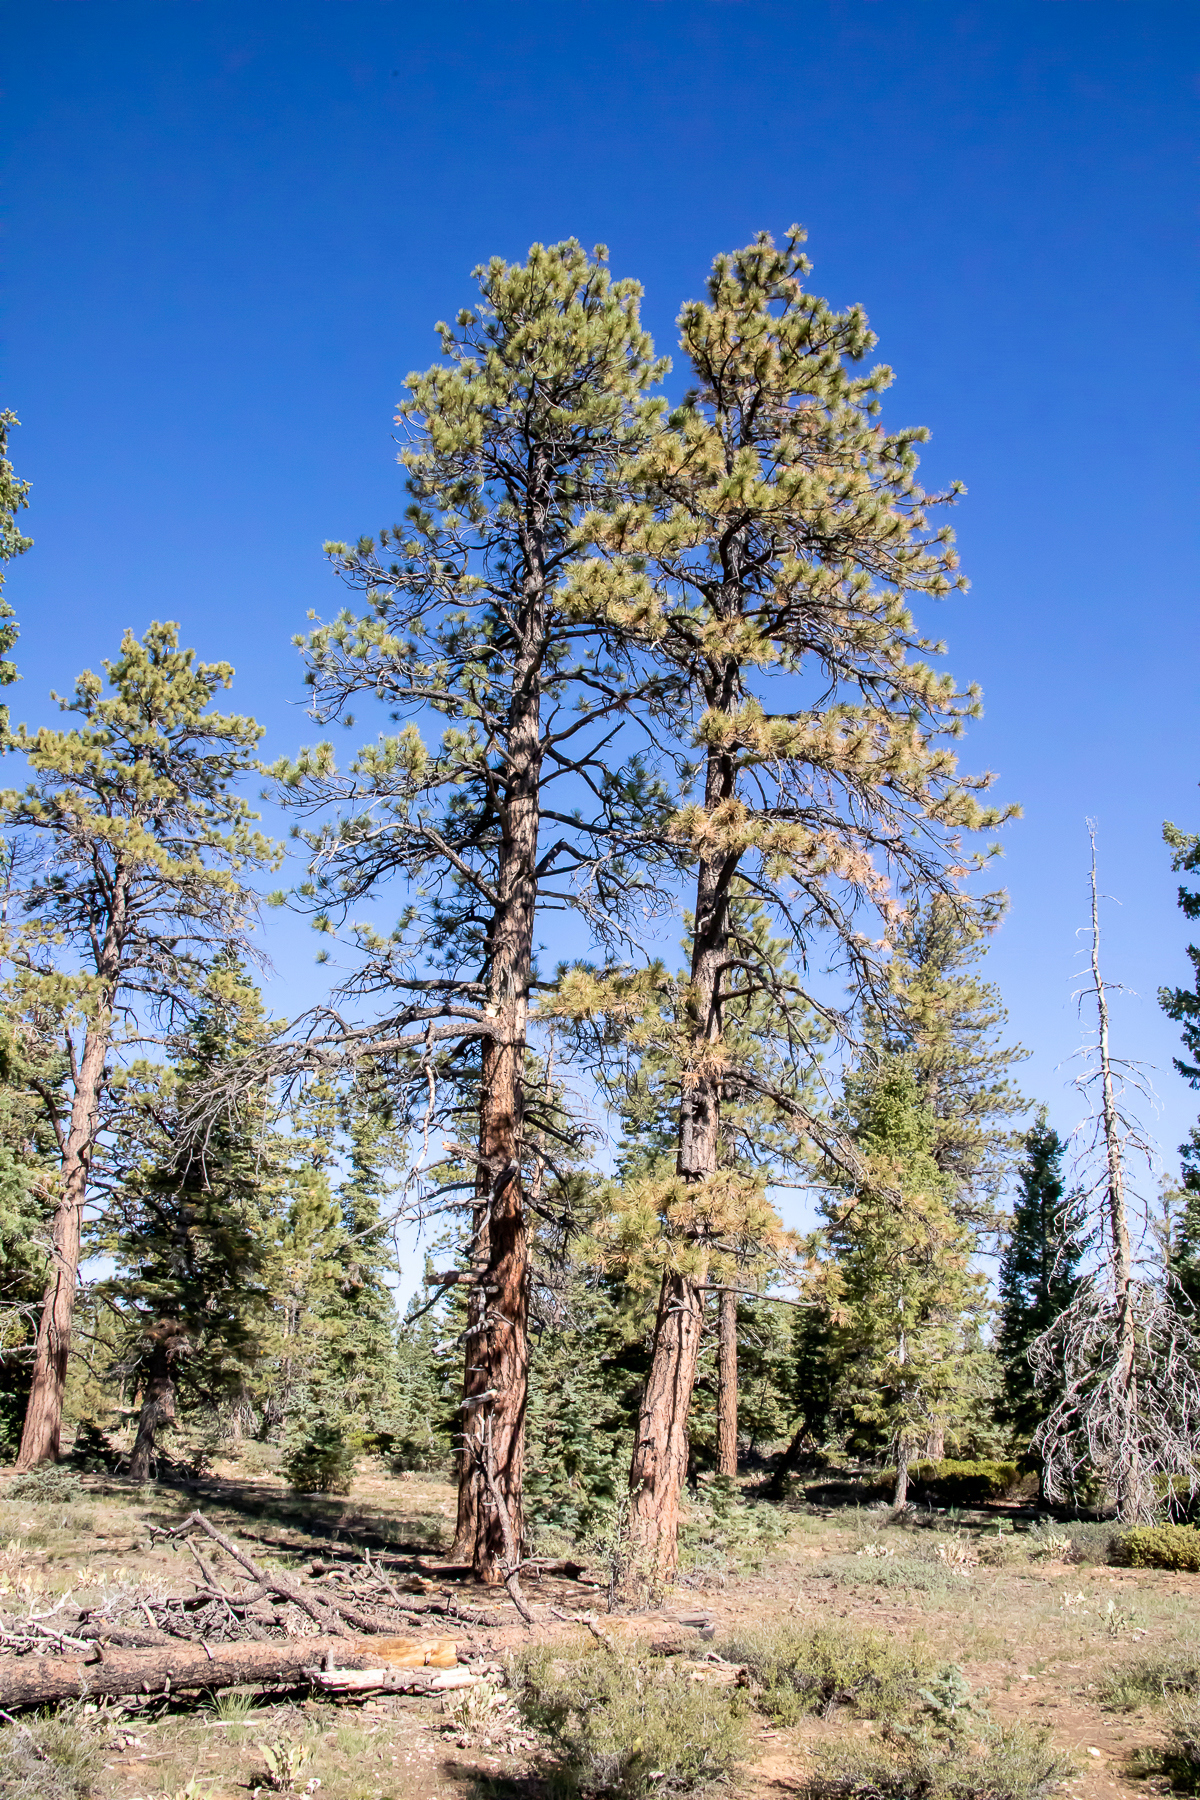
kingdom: Plantae
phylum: Tracheophyta
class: Pinopsida
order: Pinales
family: Pinaceae
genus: Pinus
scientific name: Pinus ponderosa
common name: Western yellow-pine
